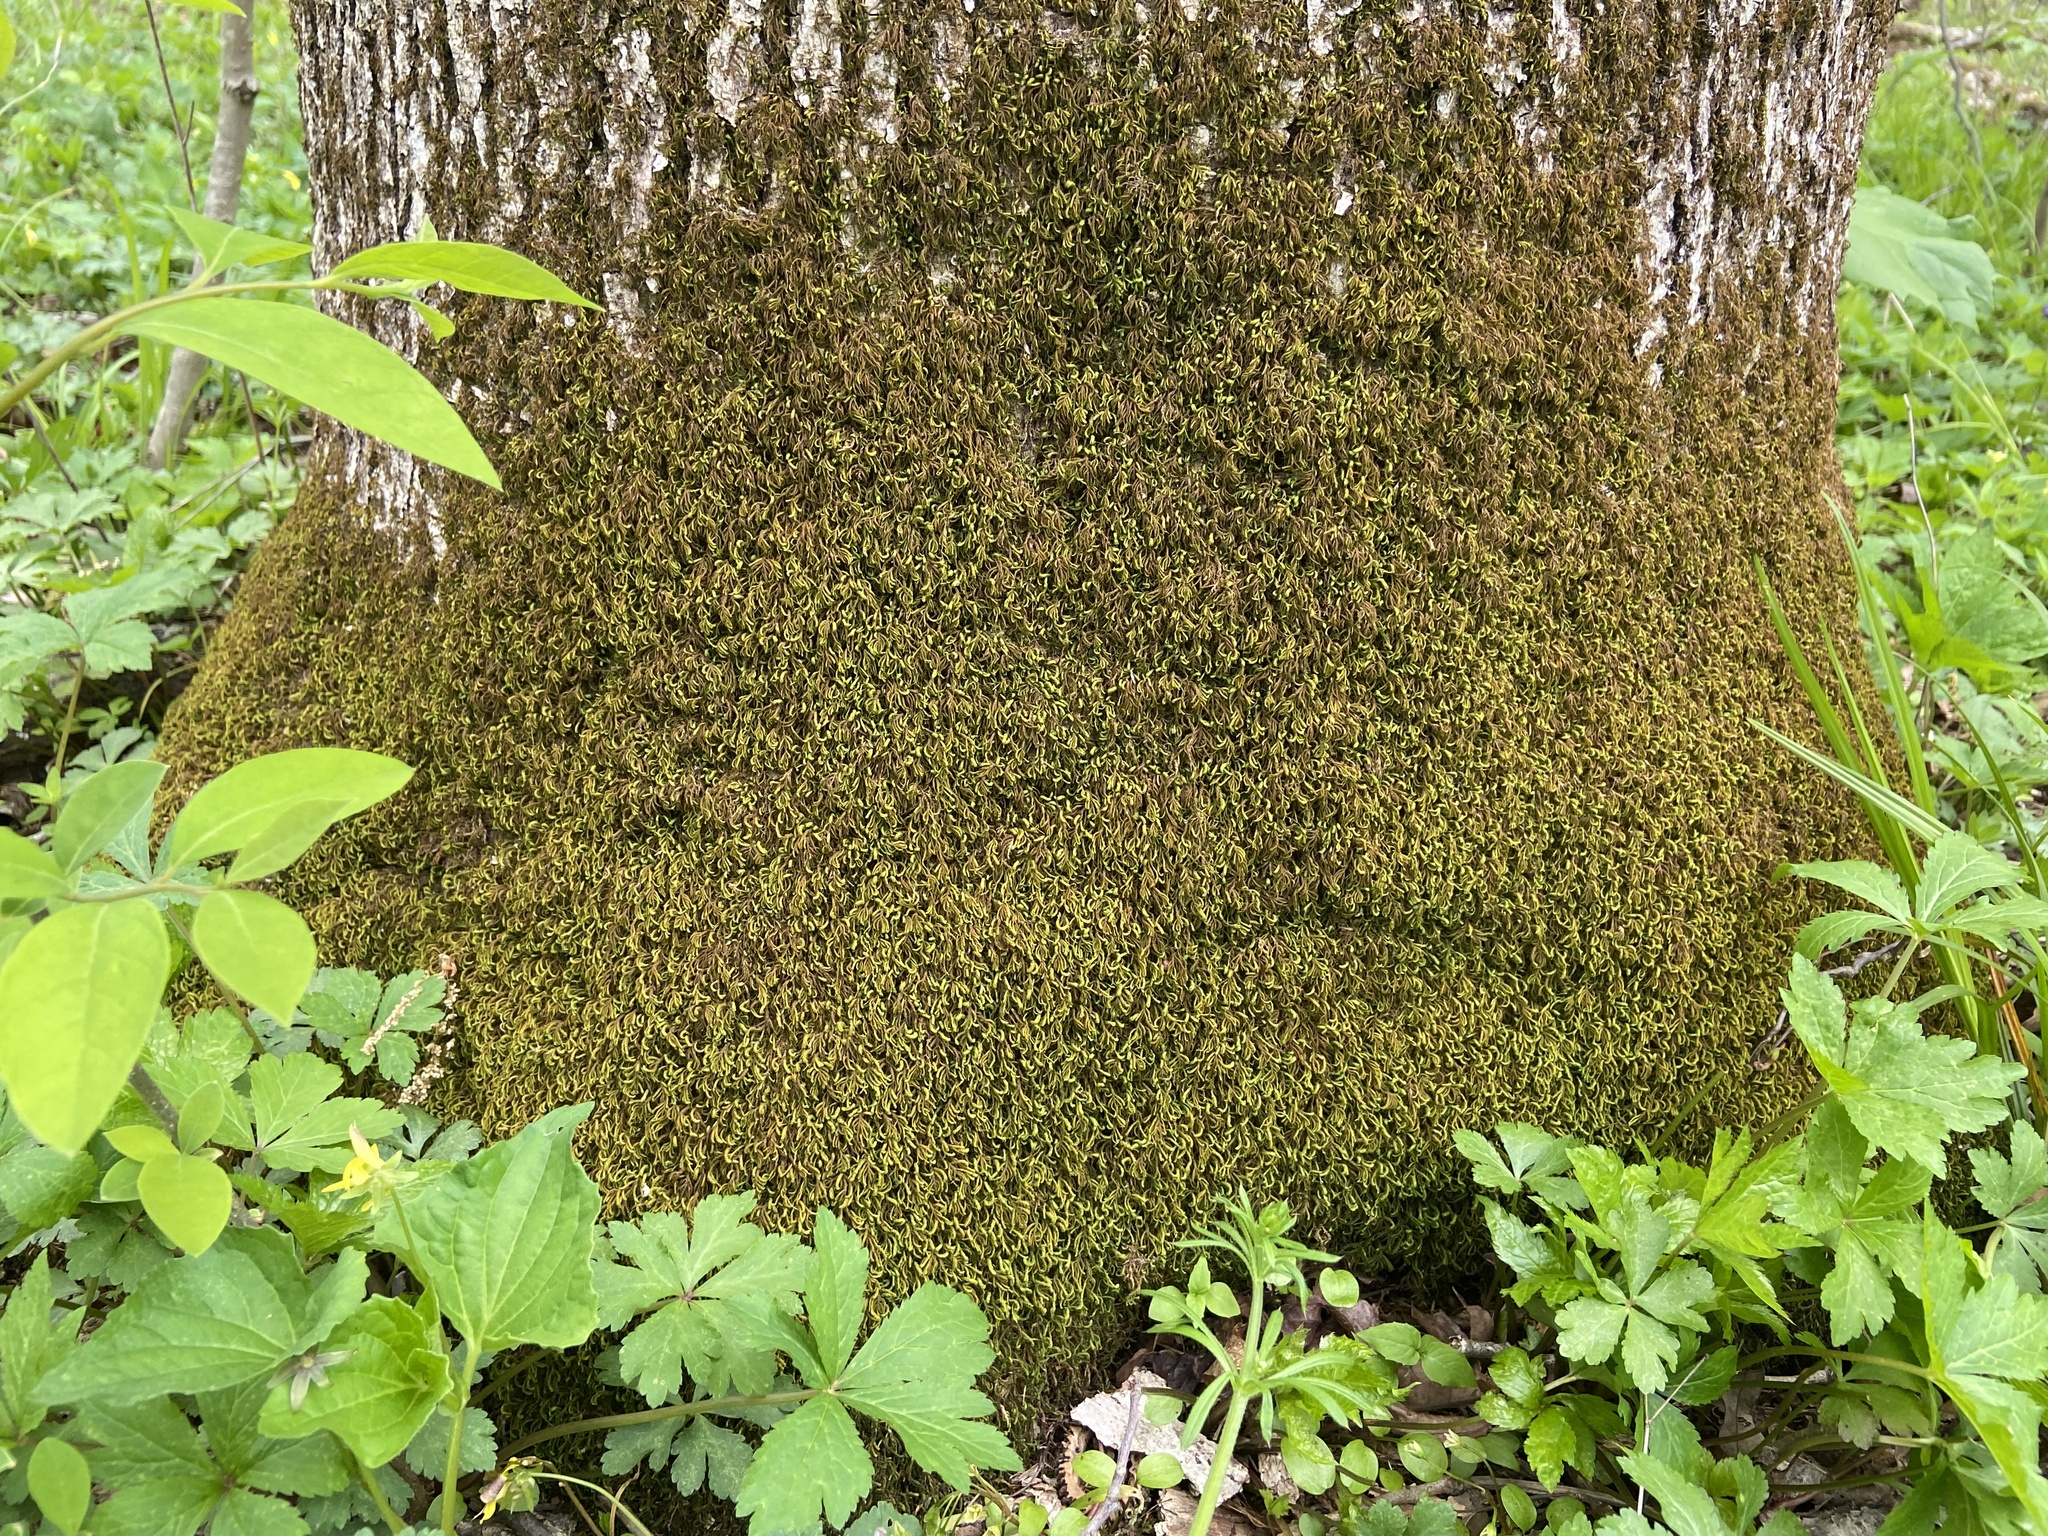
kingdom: Plantae
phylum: Bryophyta
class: Bryopsida
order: Hypnales
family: Neckeraceae
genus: Pseudanomodon
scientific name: Pseudanomodon attenuatus
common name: Tree-skirt moss
